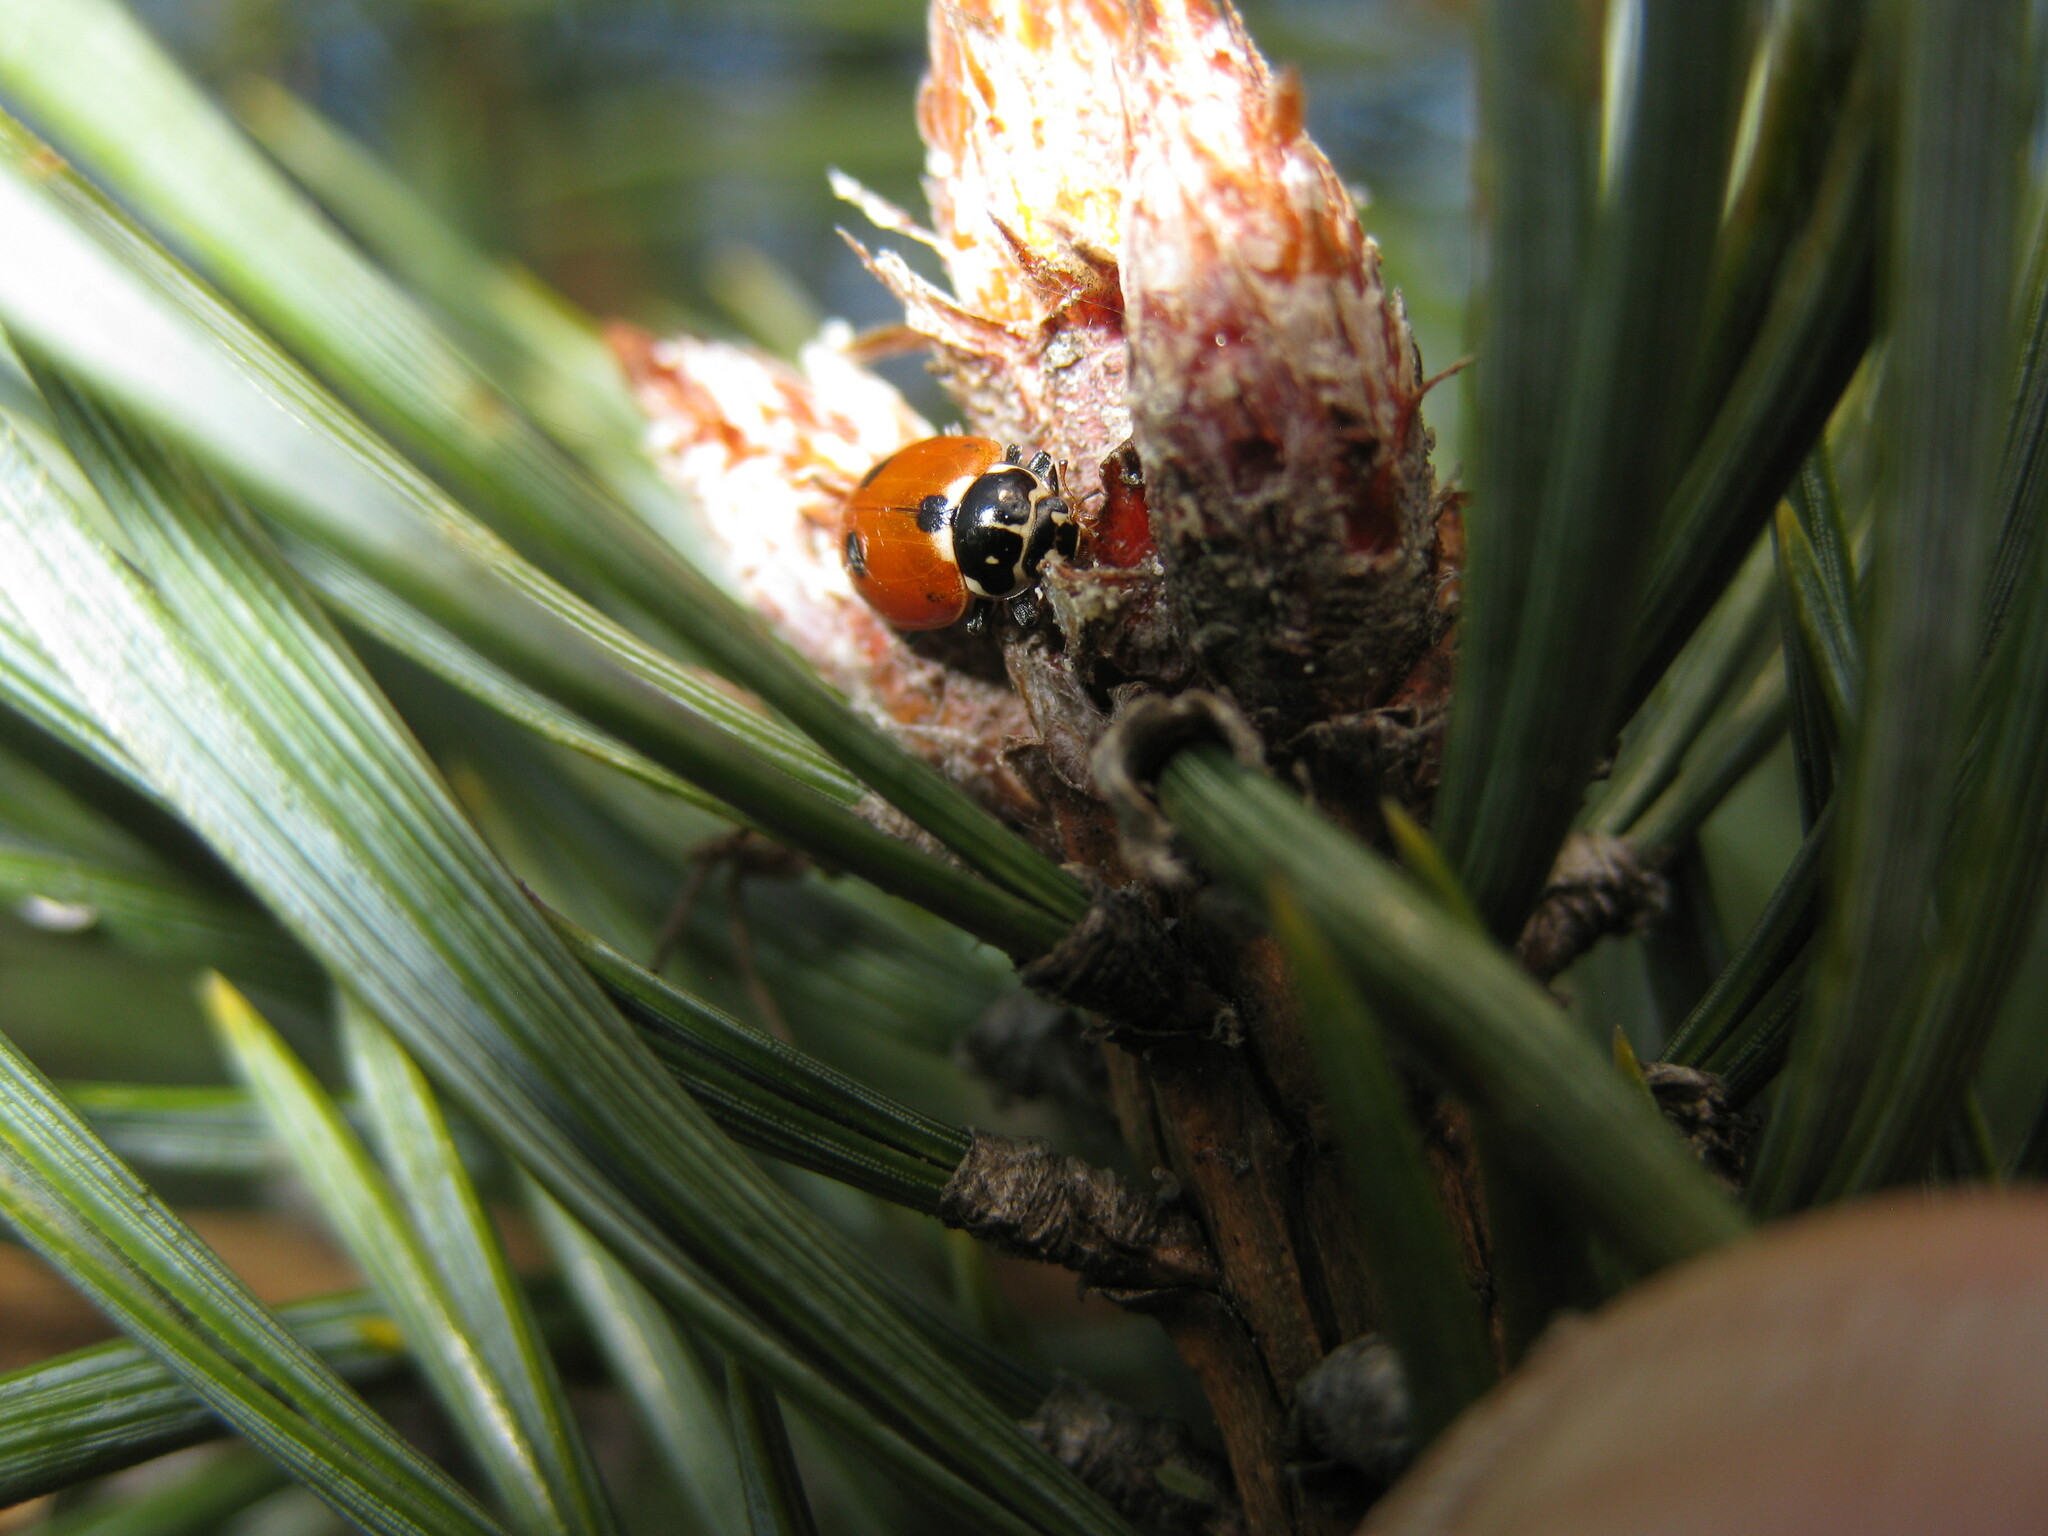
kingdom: Animalia
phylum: Arthropoda
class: Insecta
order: Coleoptera
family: Coccinellidae
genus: Hippodamia
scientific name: Hippodamia variegata
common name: Ladybird beetle
